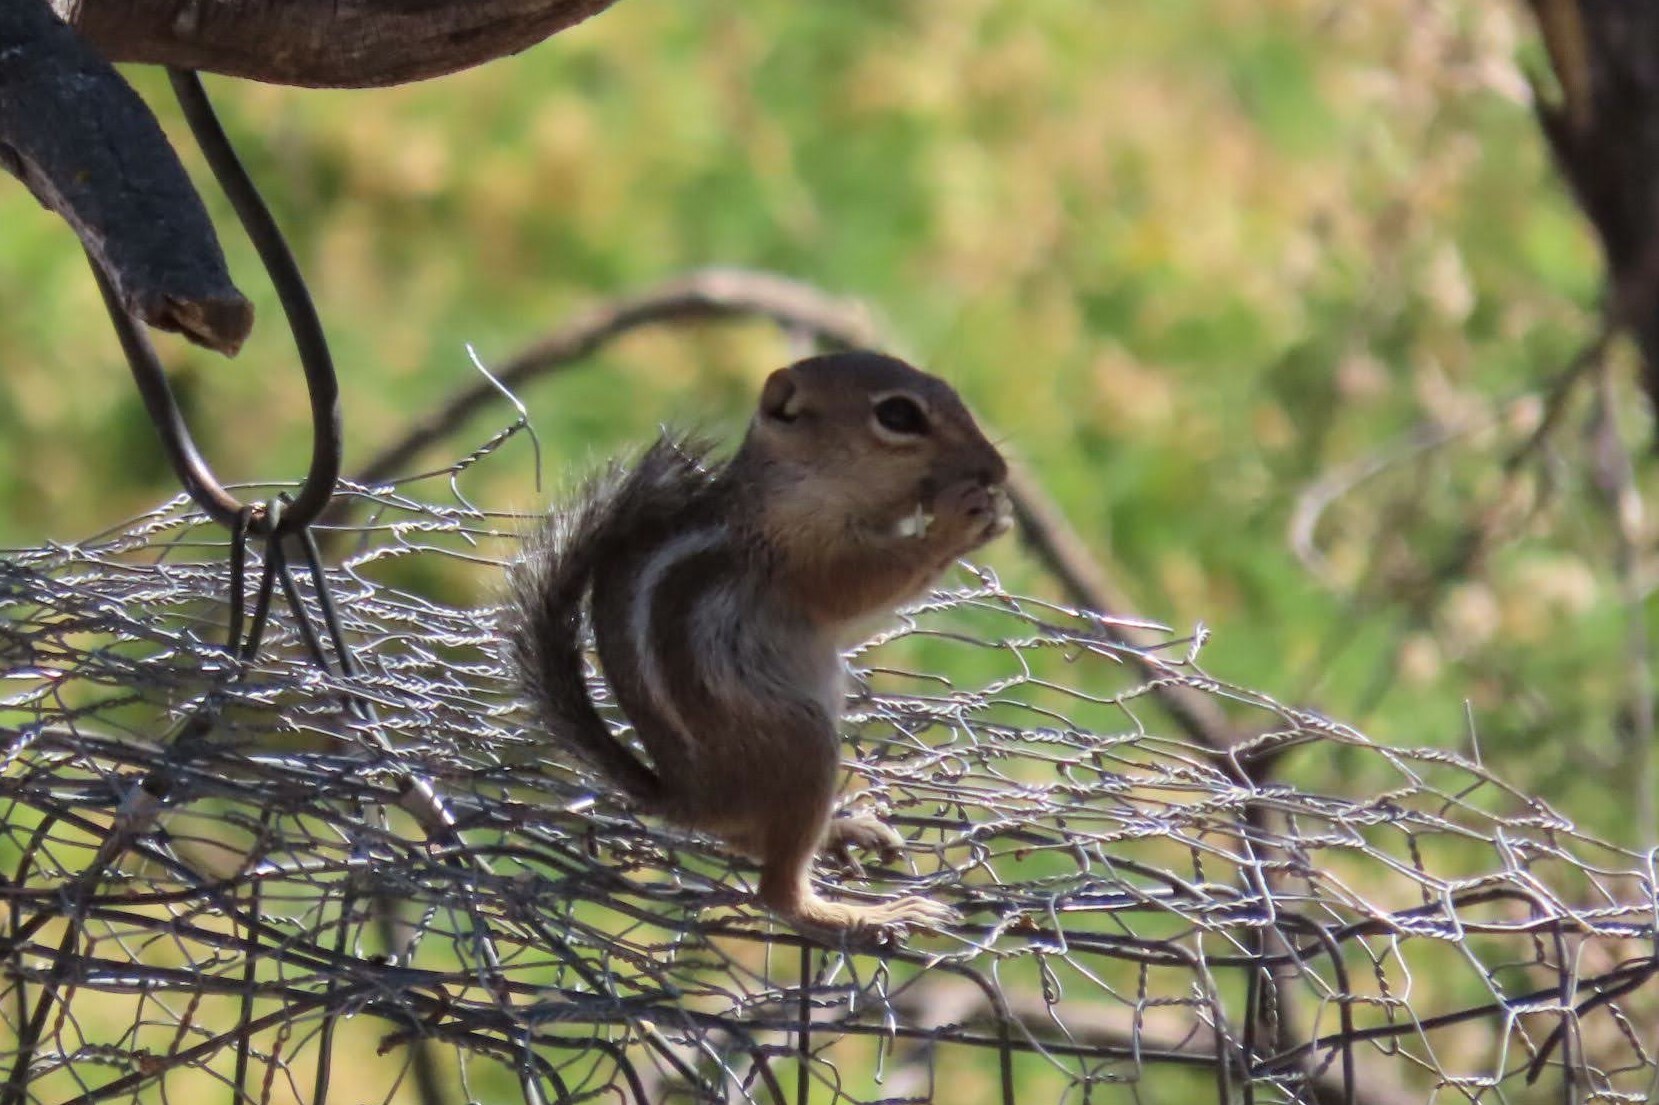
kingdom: Animalia
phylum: Chordata
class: Mammalia
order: Rodentia
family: Sciuridae
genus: Ammospermophilus
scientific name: Ammospermophilus harrisii
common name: Harris's antelope squirrel
